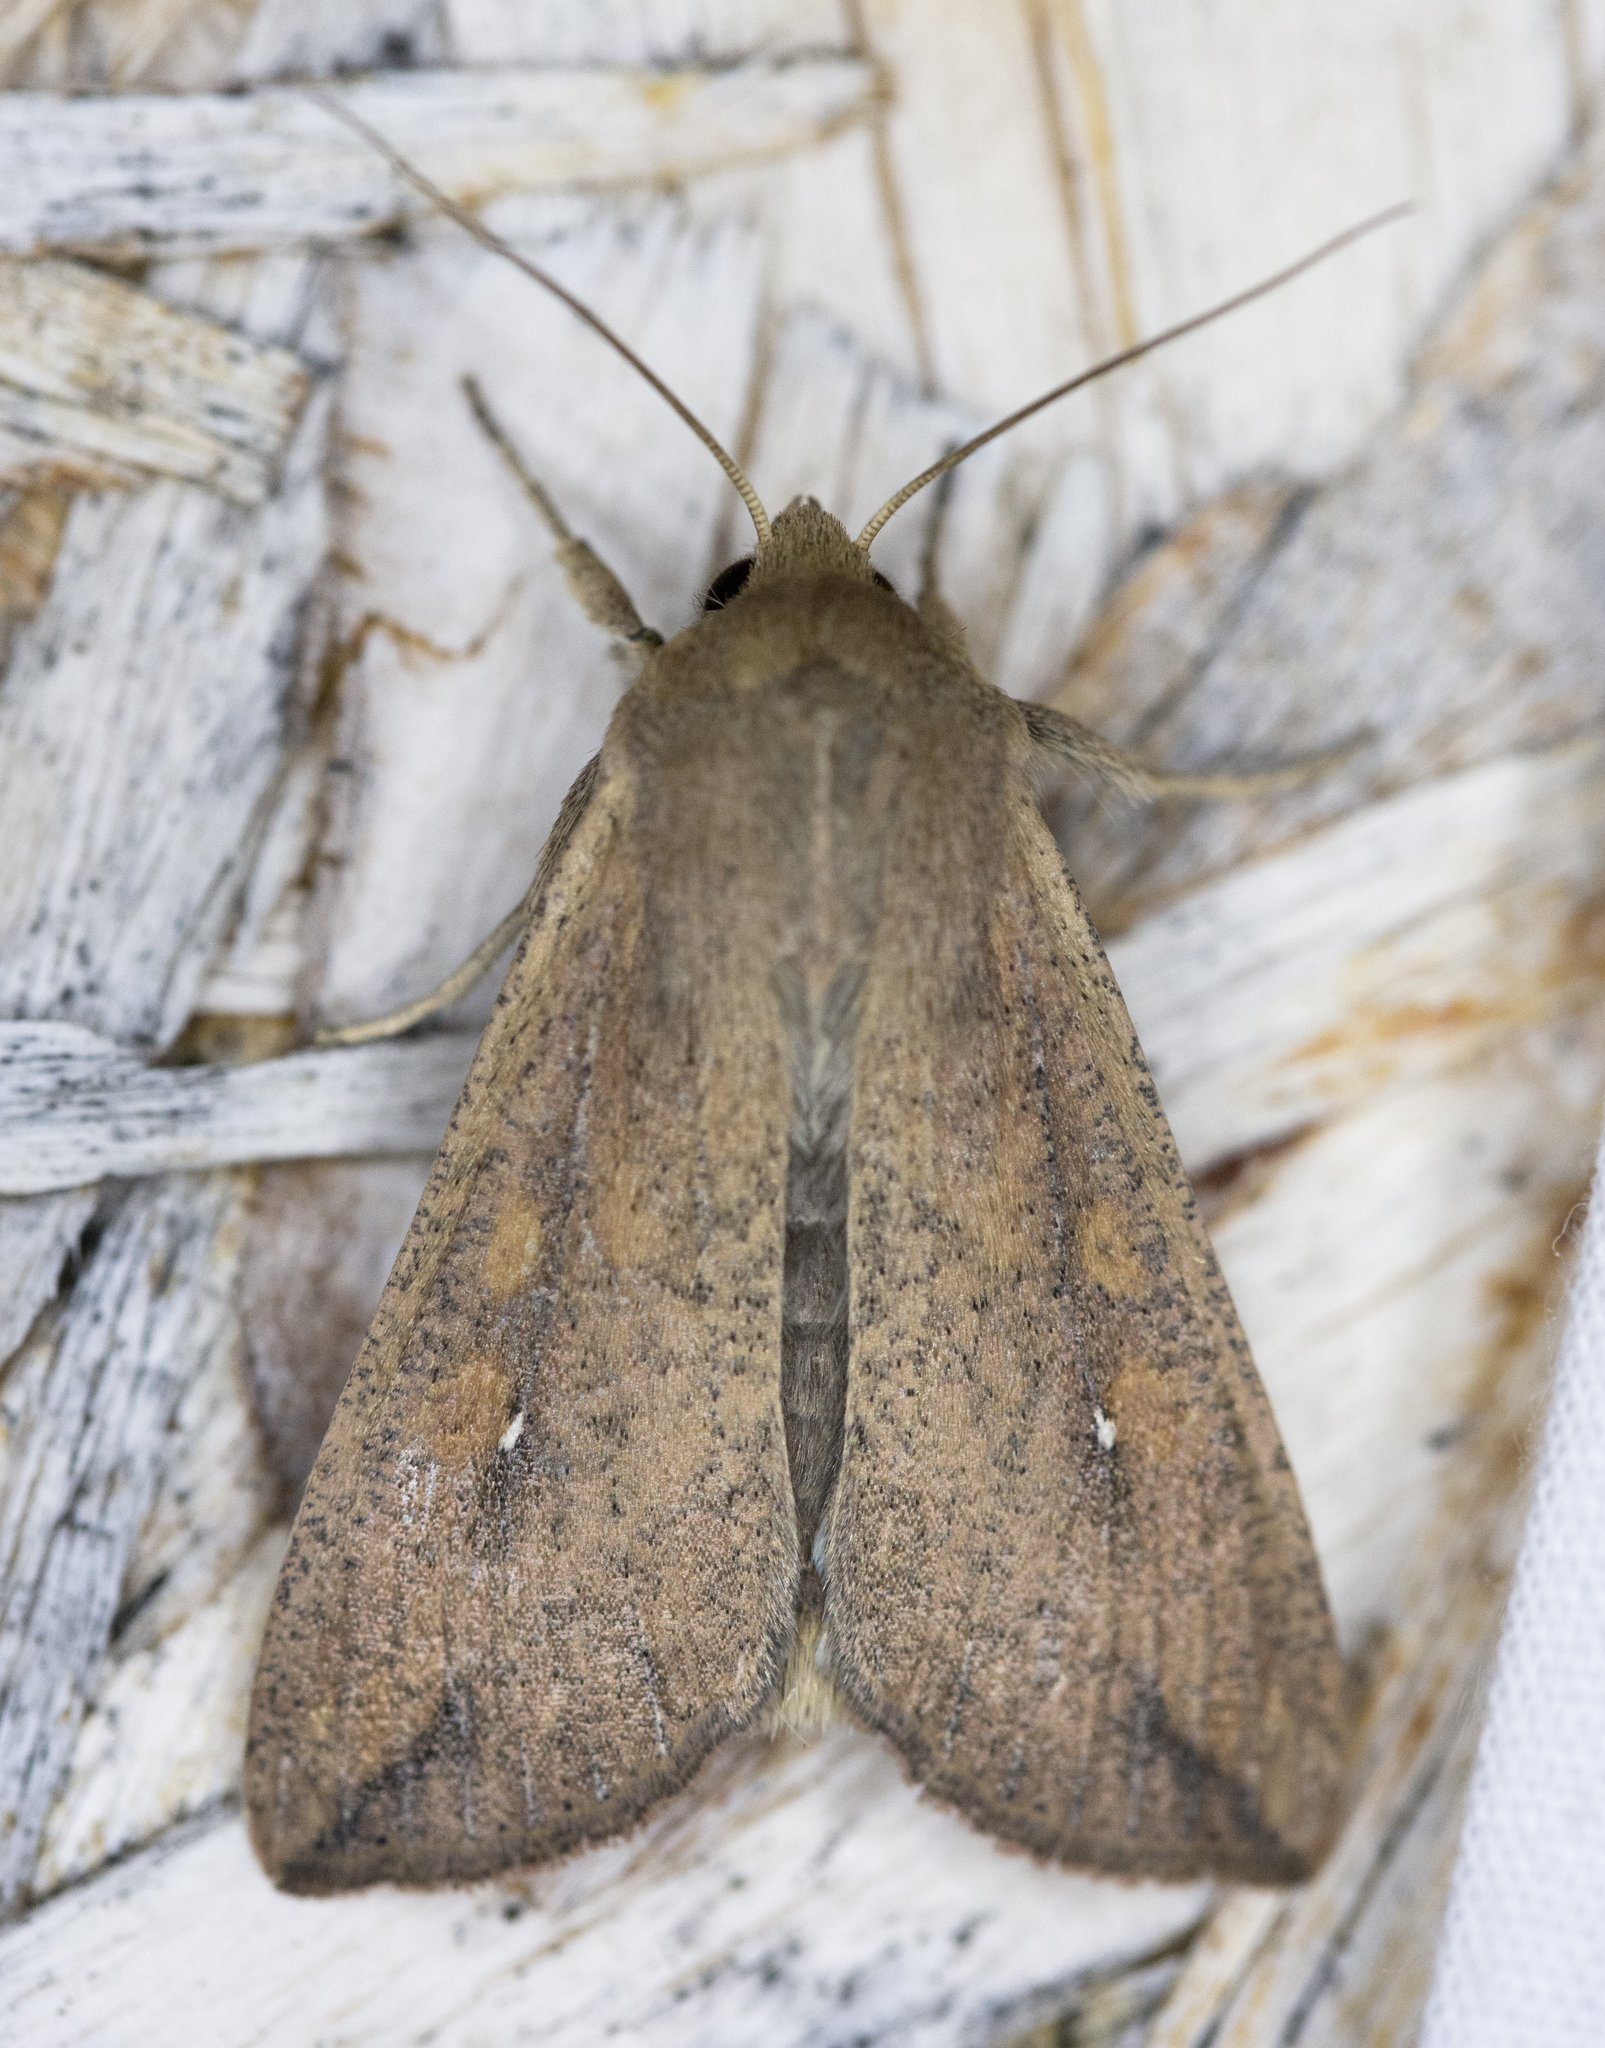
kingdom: Animalia
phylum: Arthropoda
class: Insecta
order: Lepidoptera
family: Noctuidae
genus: Mythimna
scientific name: Mythimna unipuncta
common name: White-speck
